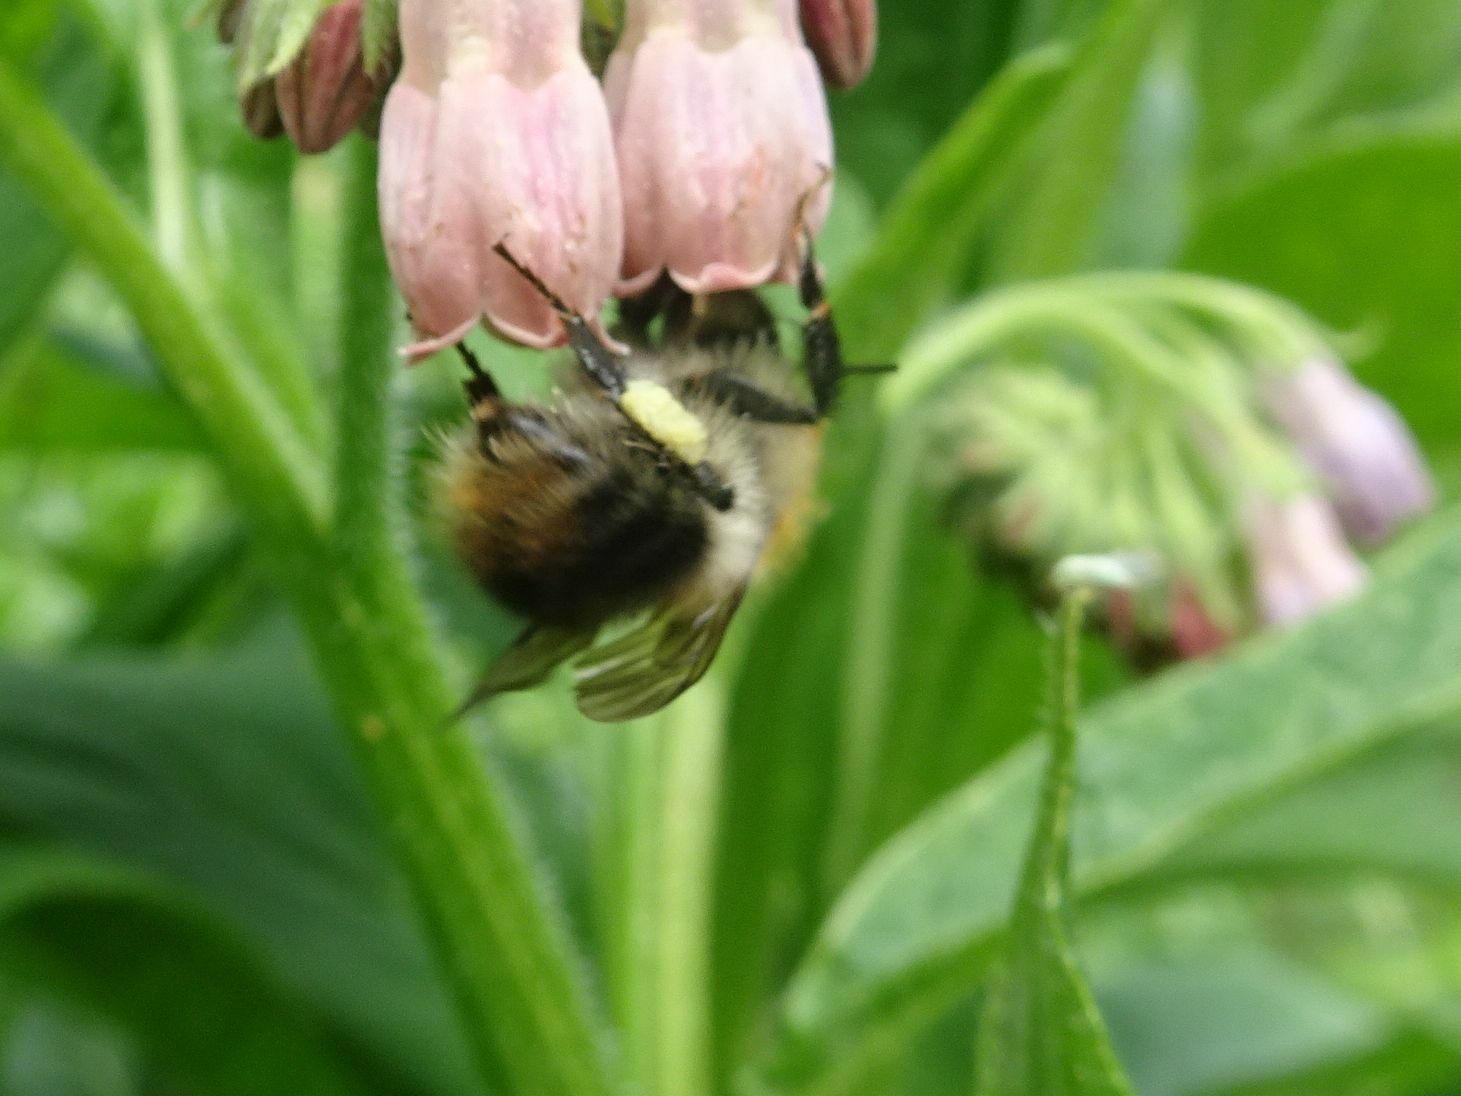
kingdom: Animalia
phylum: Arthropoda
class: Insecta
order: Hymenoptera
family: Apidae
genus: Bombus
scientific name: Bombus pascuorum
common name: Common carder bee
